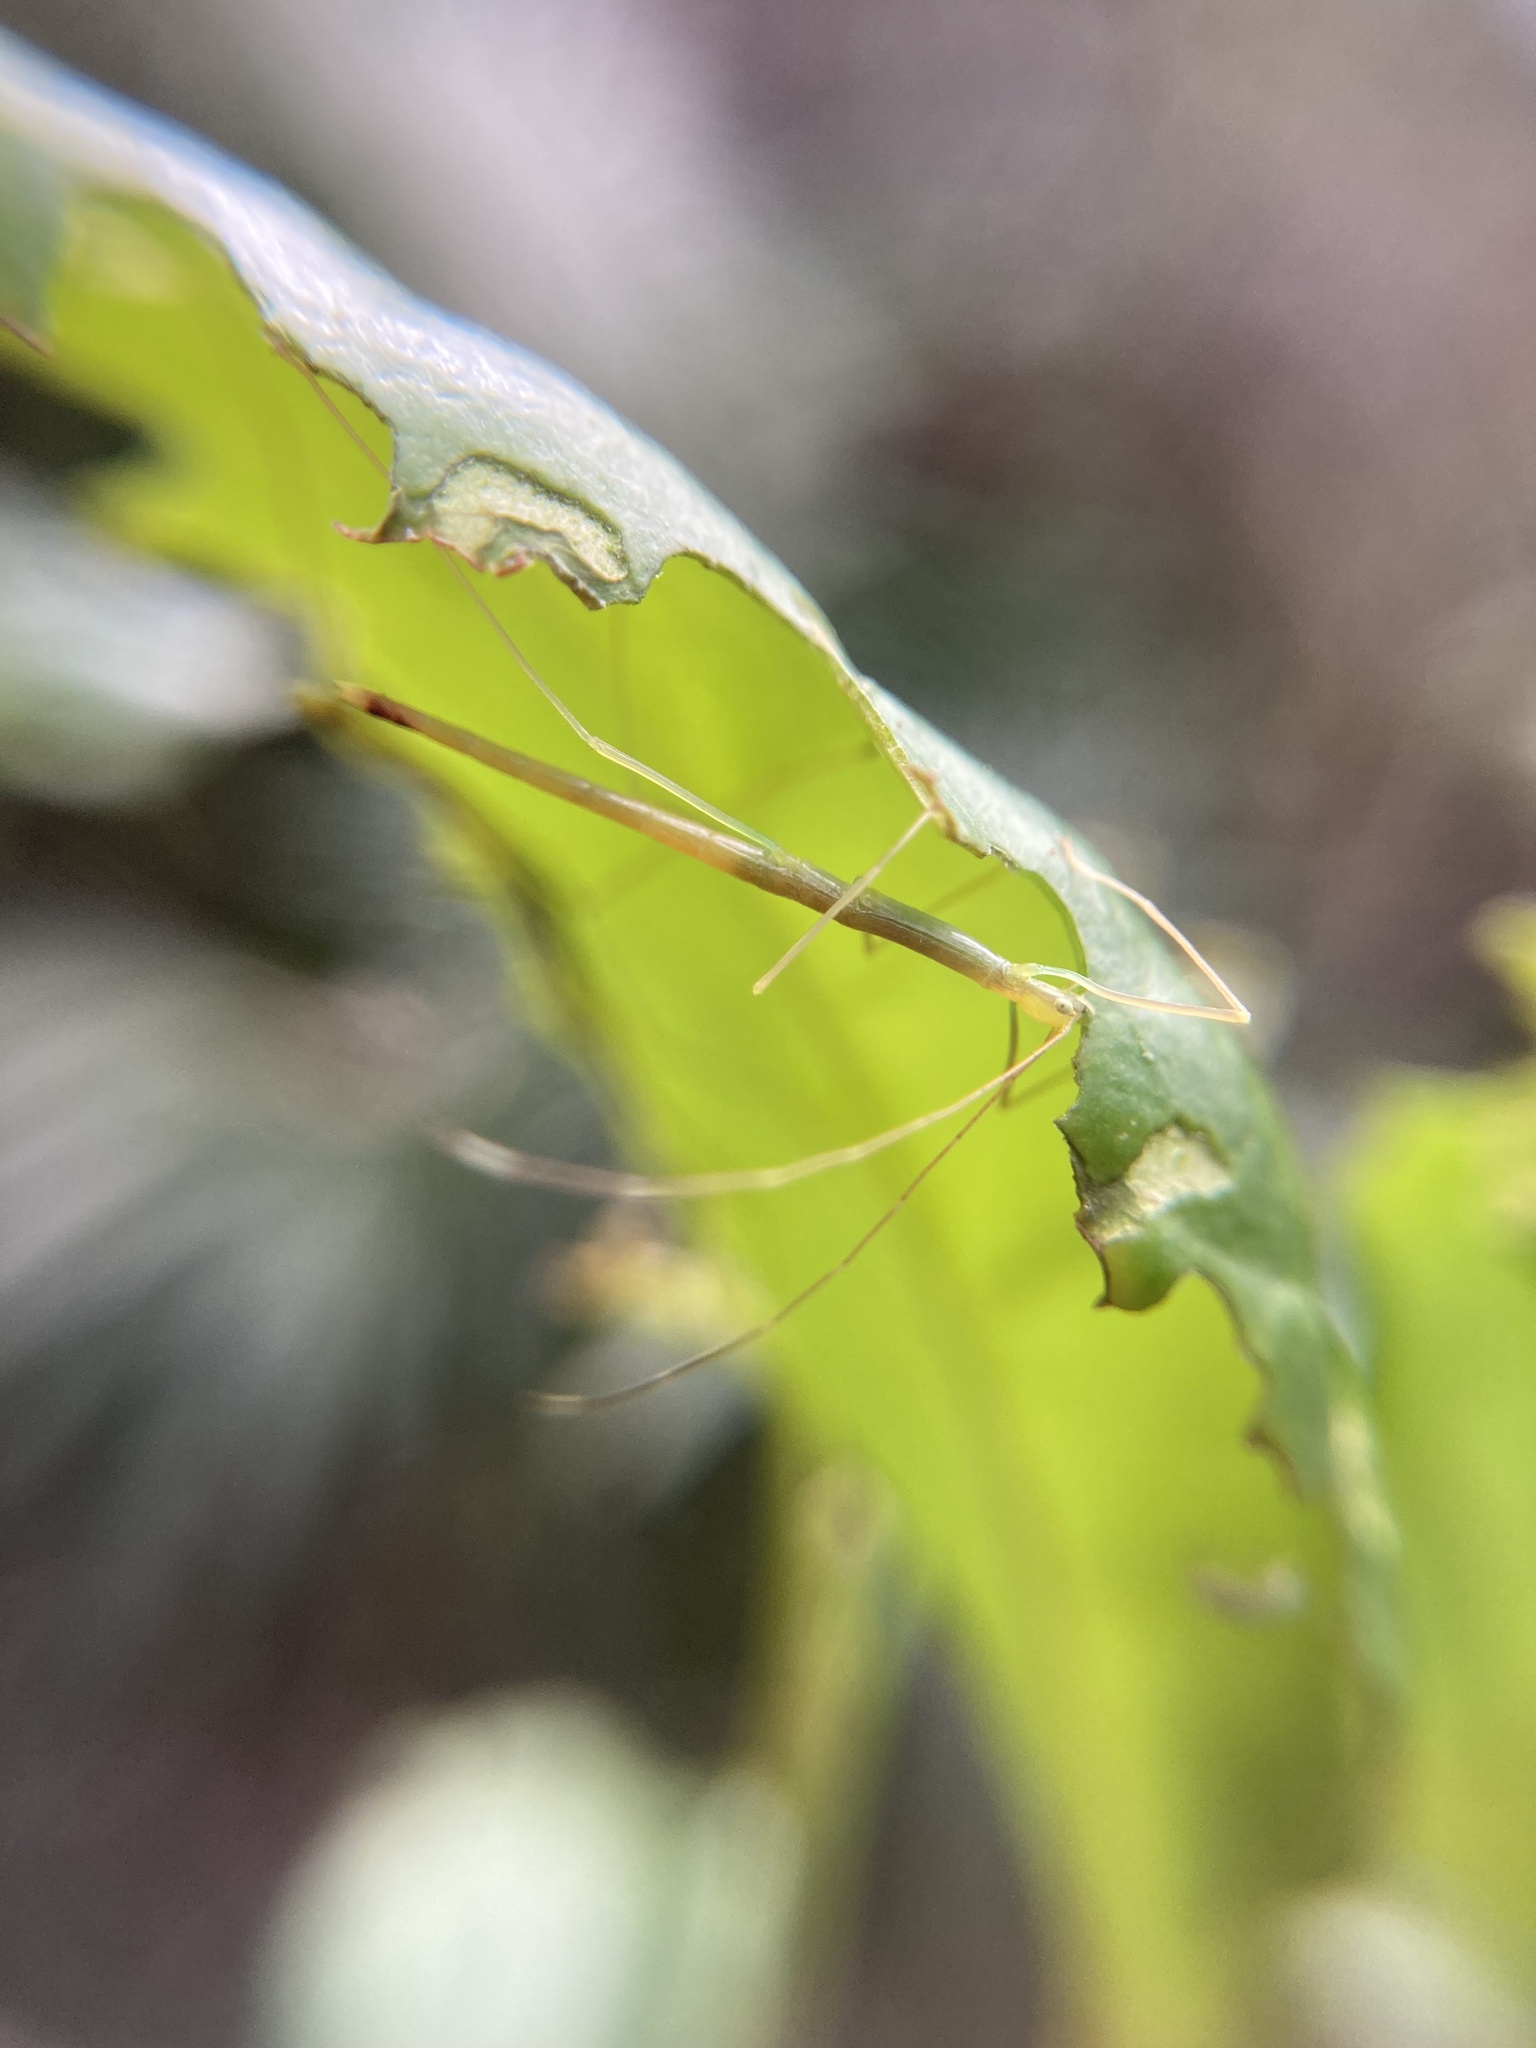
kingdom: Animalia
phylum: Arthropoda
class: Insecta
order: Phasmida
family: Lonchodidae
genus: Candovia
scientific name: Candovia strumosa
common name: Richmond river stick-insect
